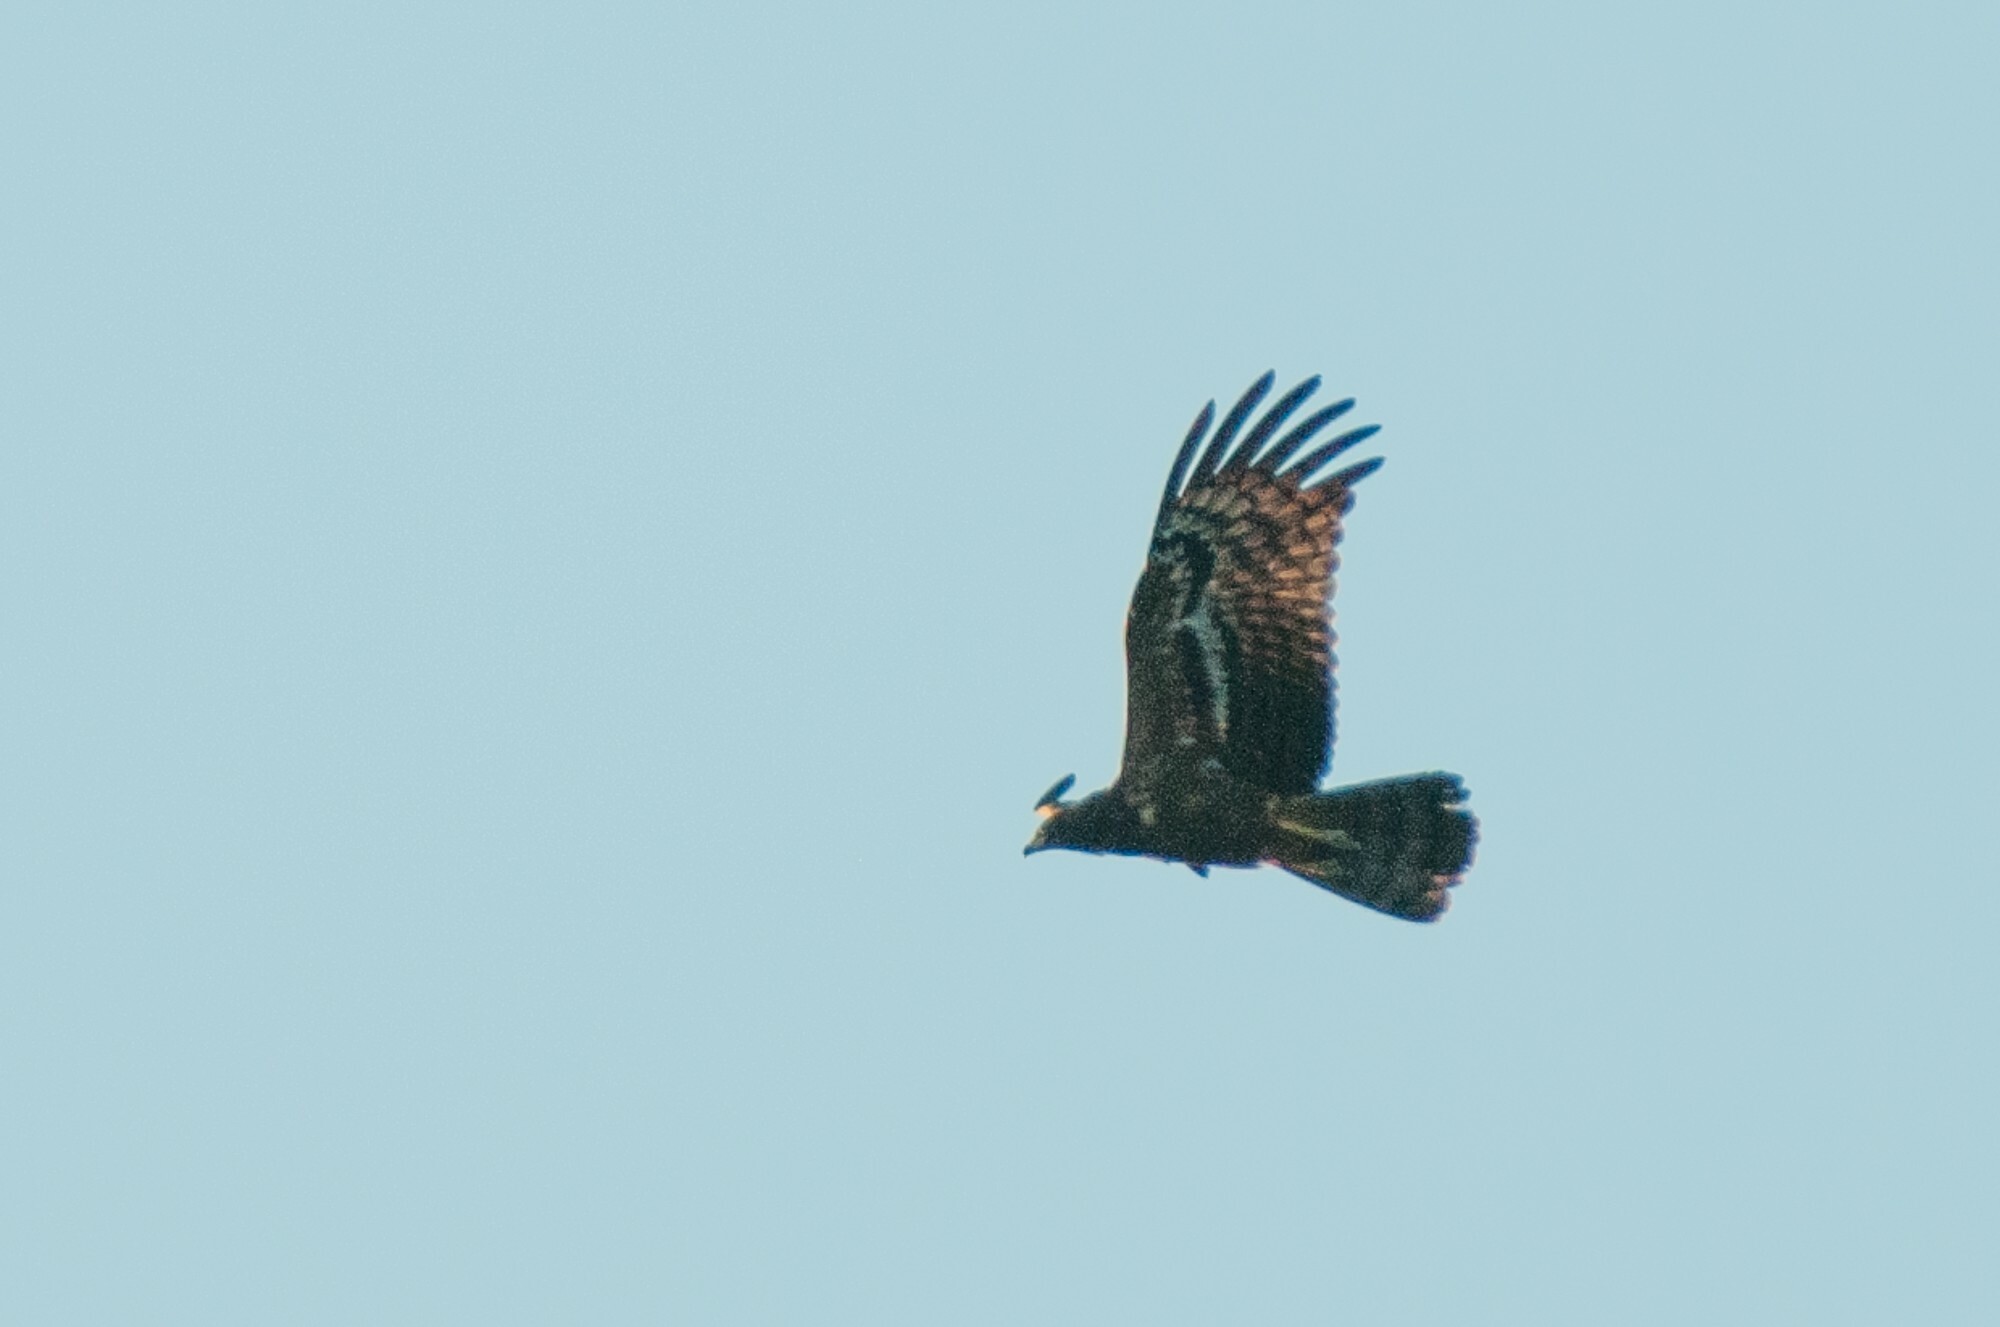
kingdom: Animalia
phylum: Chordata
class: Aves
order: Accipitriformes
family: Accipitridae
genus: Polyboroides
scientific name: Polyboroides typus
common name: African harrier-hawk
